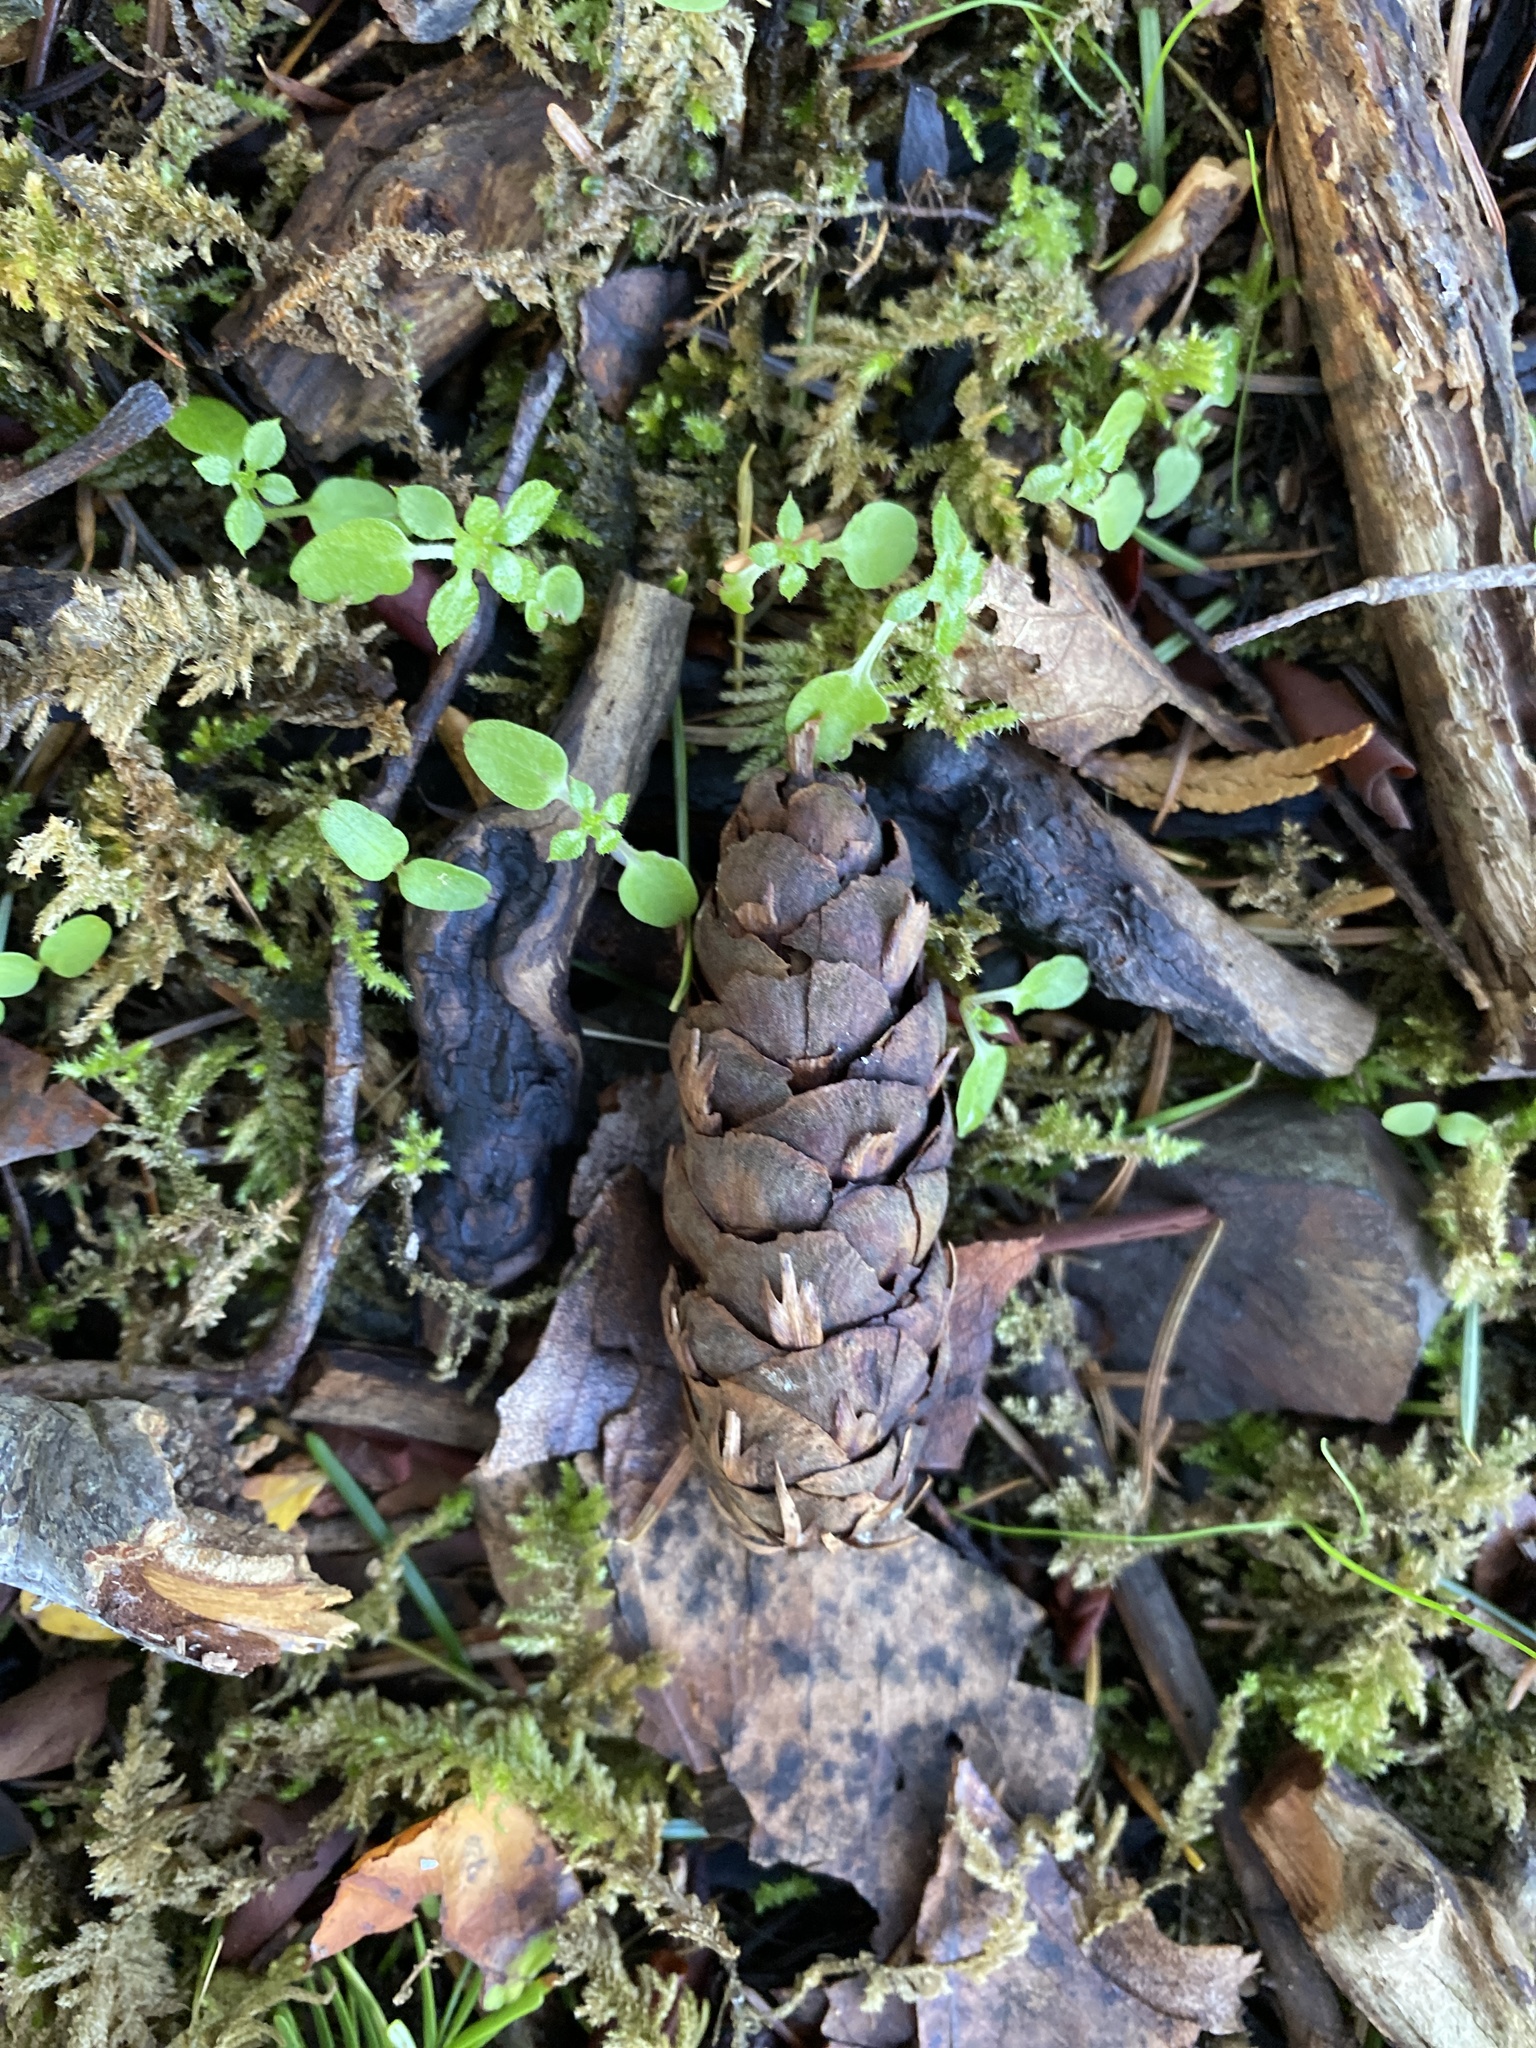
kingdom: Plantae
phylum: Tracheophyta
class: Pinopsida
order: Pinales
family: Pinaceae
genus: Pseudotsuga
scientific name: Pseudotsuga menziesii
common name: Douglas fir
